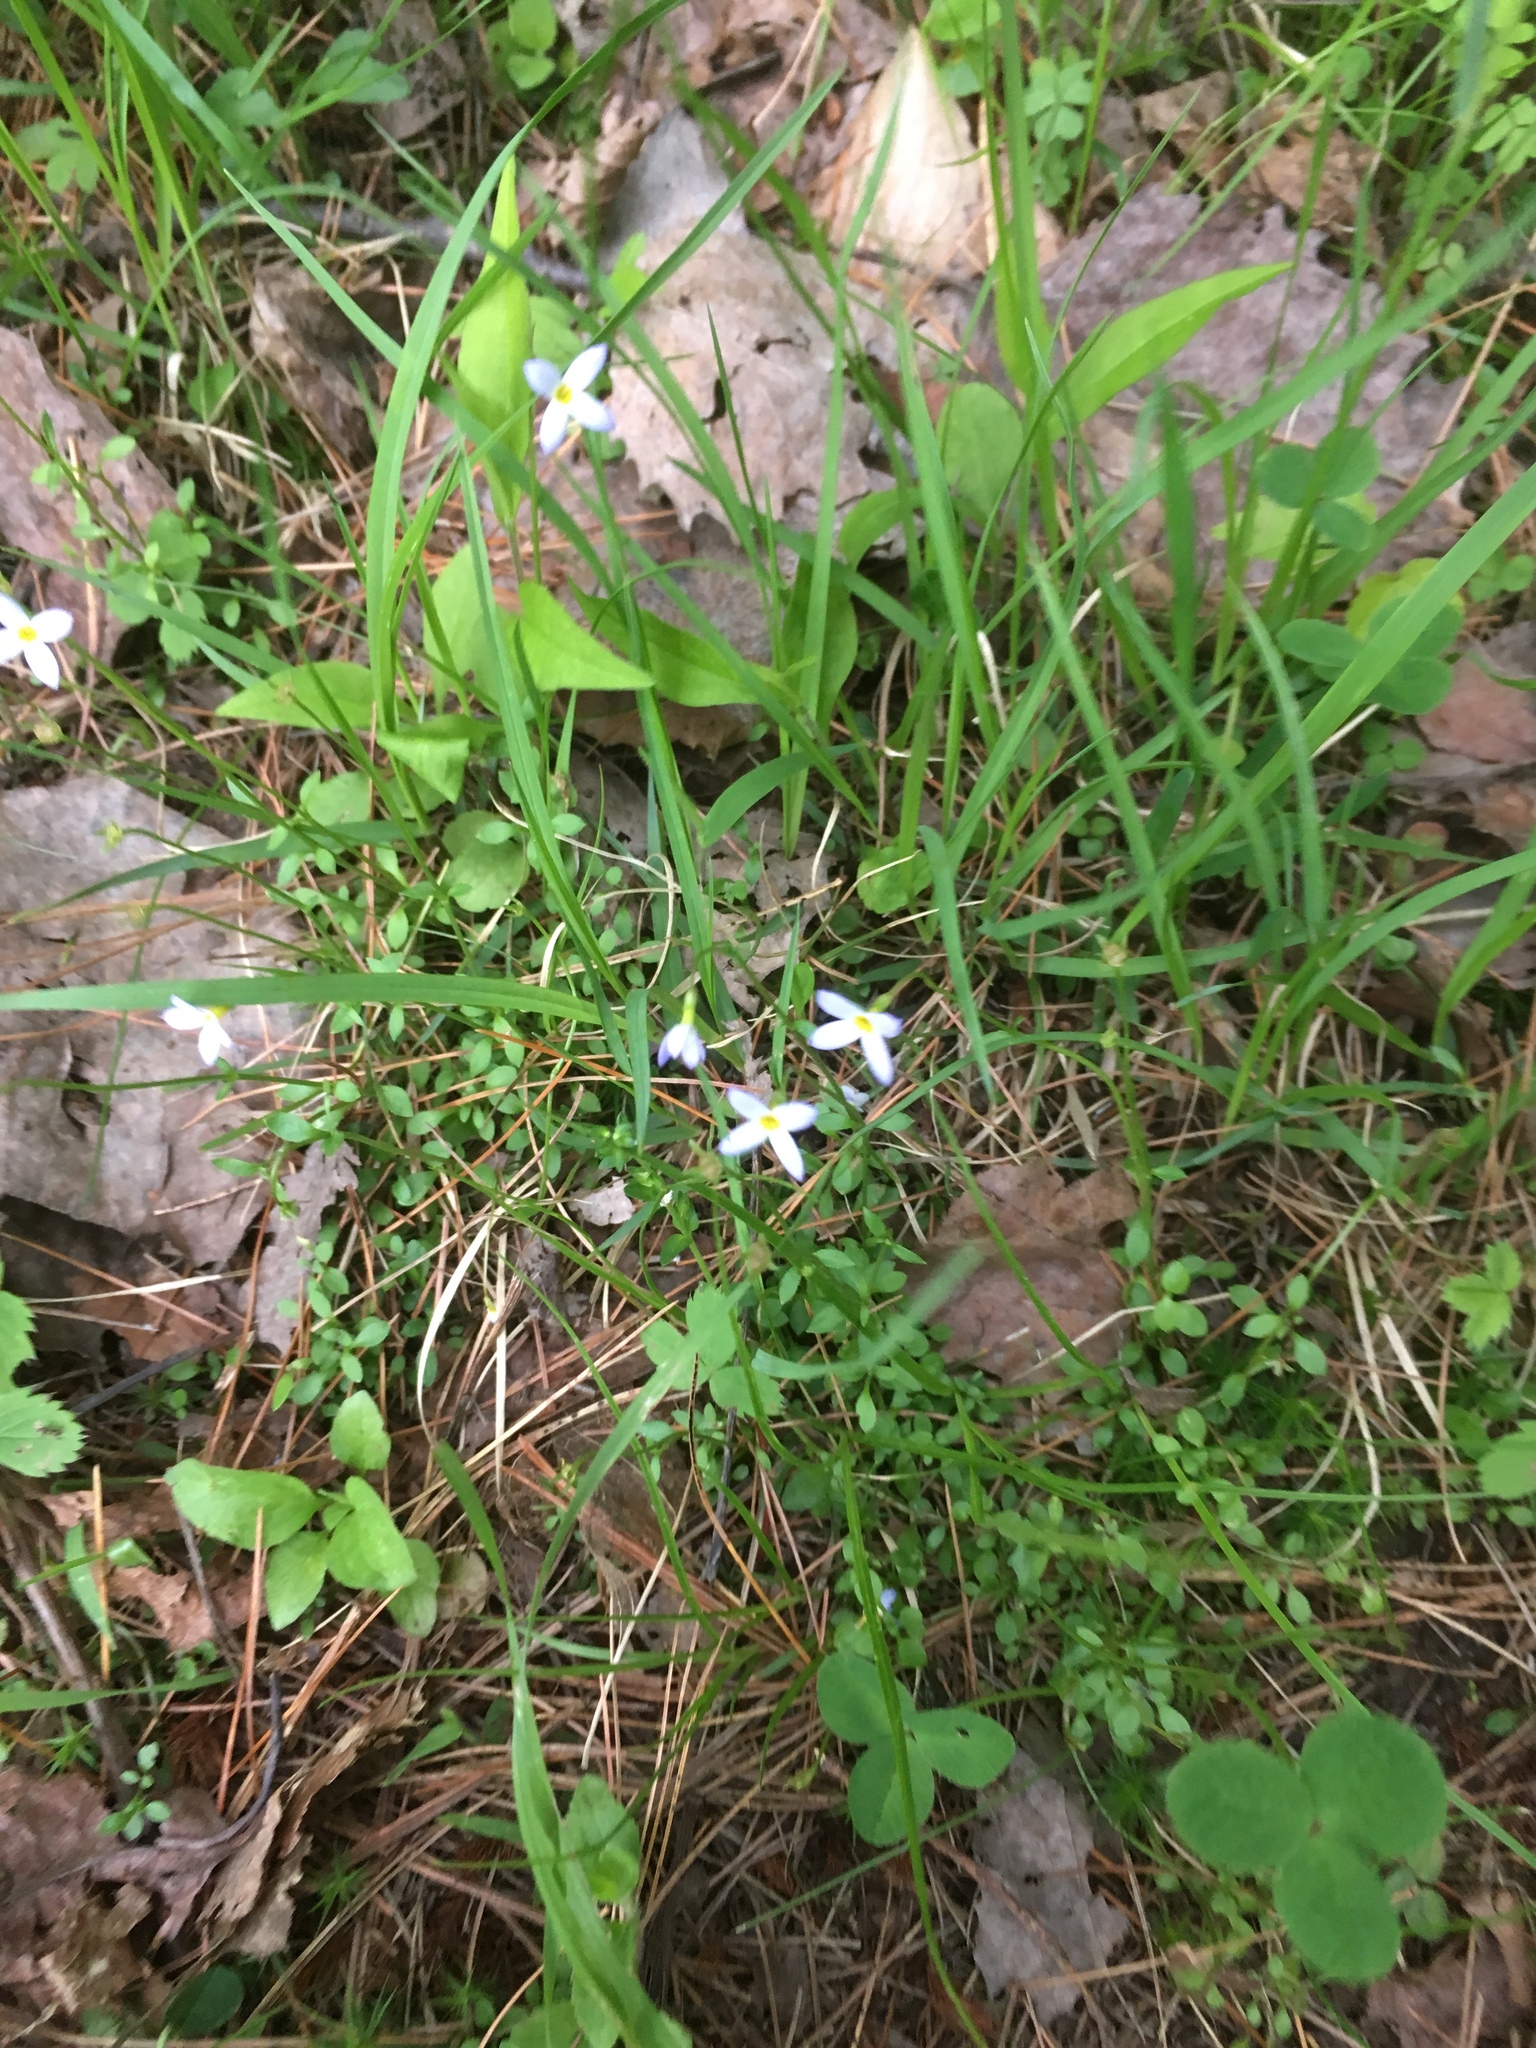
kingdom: Plantae
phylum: Tracheophyta
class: Magnoliopsida
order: Gentianales
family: Rubiaceae
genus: Houstonia
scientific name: Houstonia caerulea
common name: Bluets
